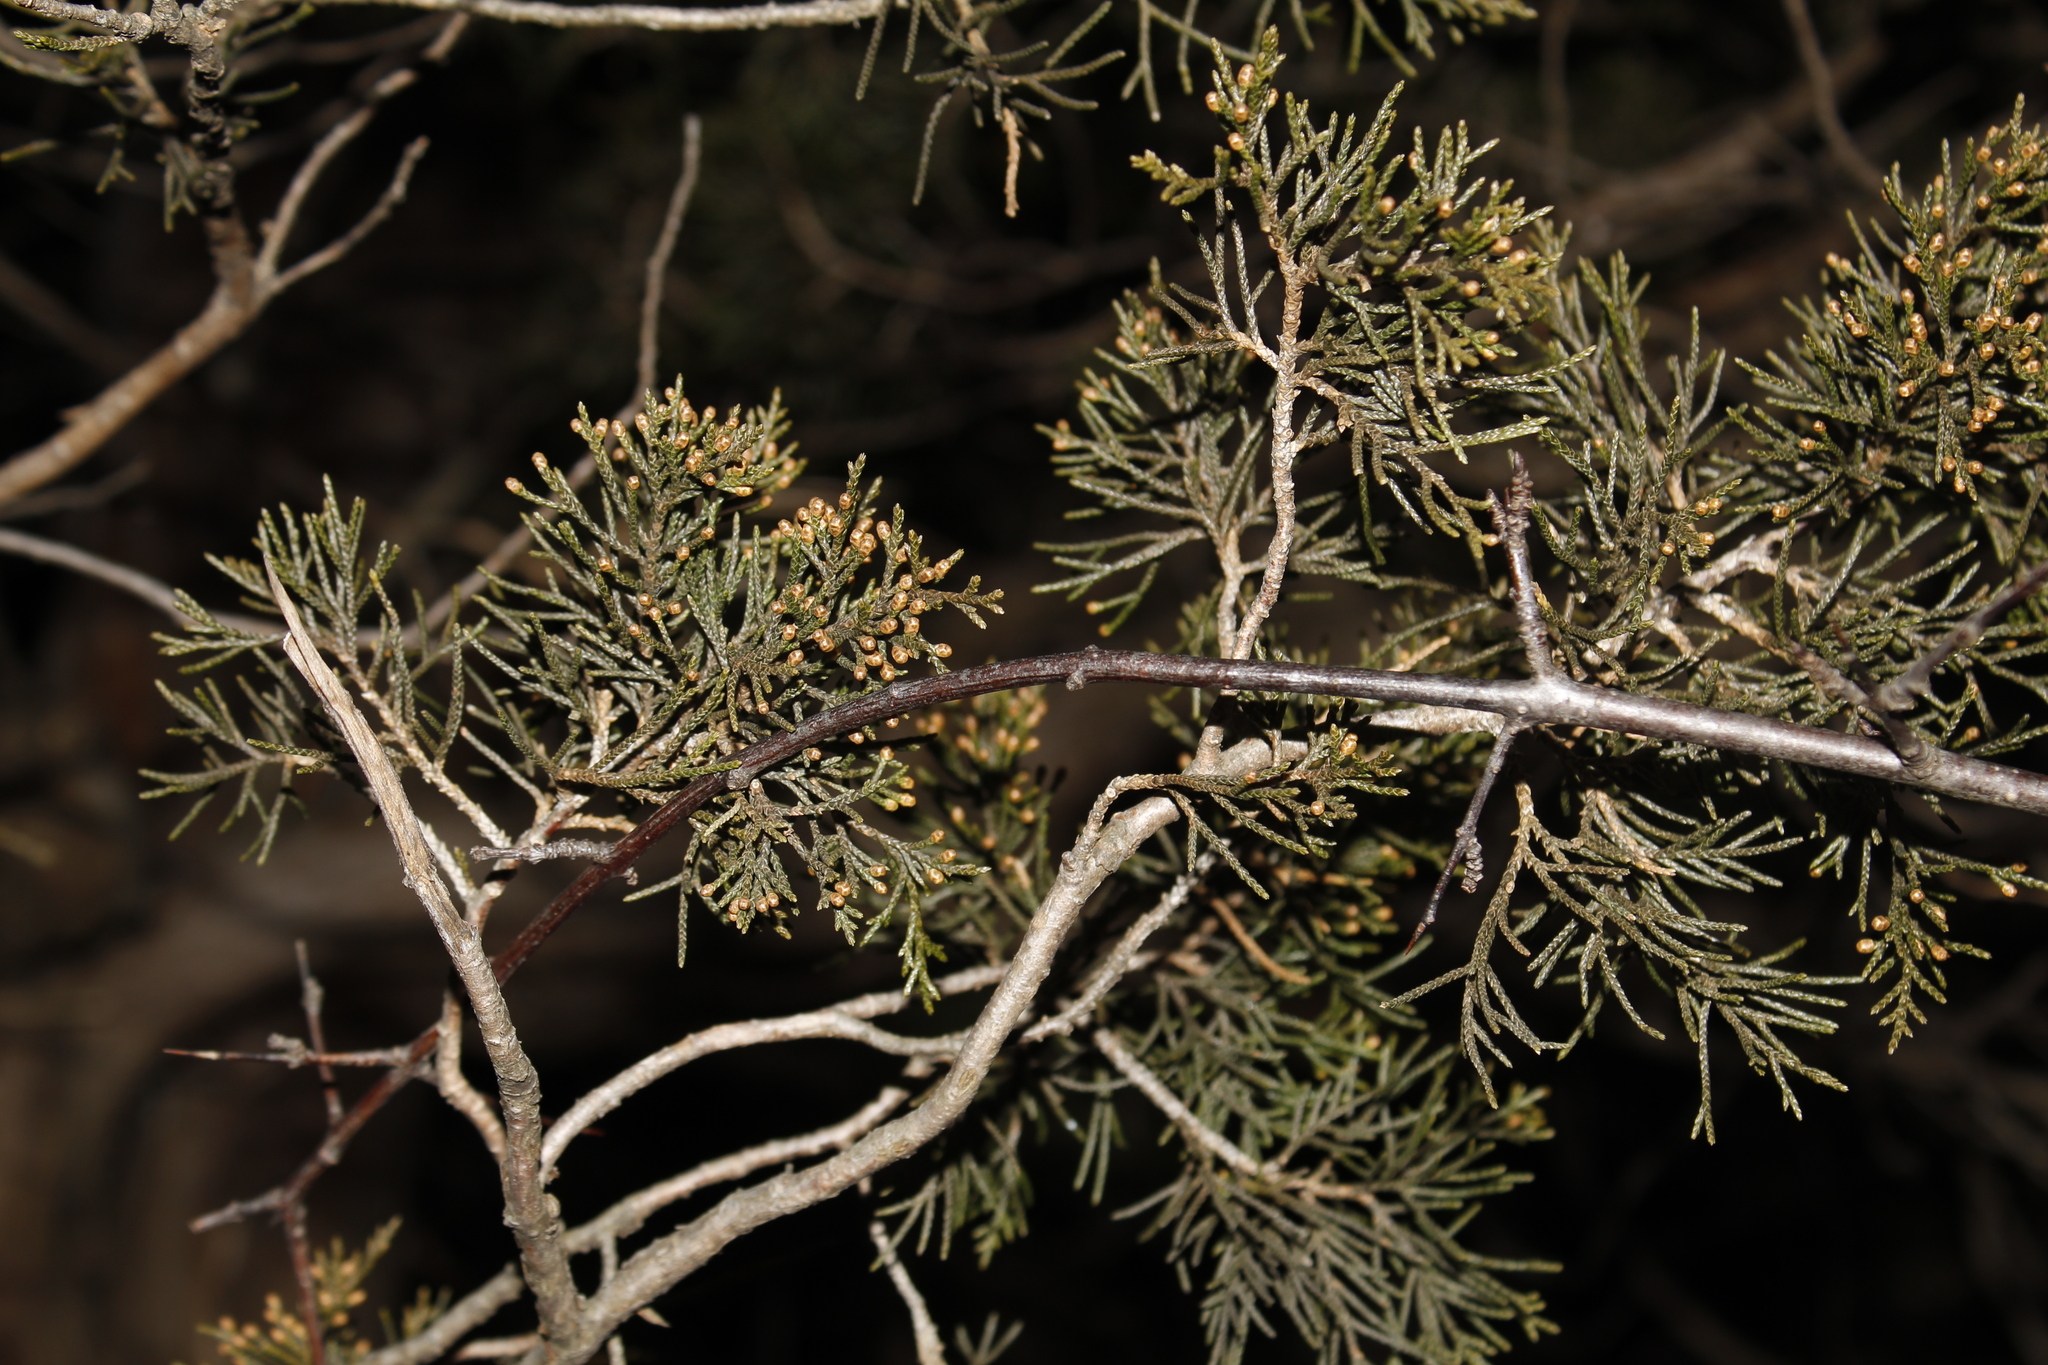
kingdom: Plantae
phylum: Tracheophyta
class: Pinopsida
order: Pinales
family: Cupressaceae
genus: Juniperus
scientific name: Juniperus virginiana
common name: Red juniper
